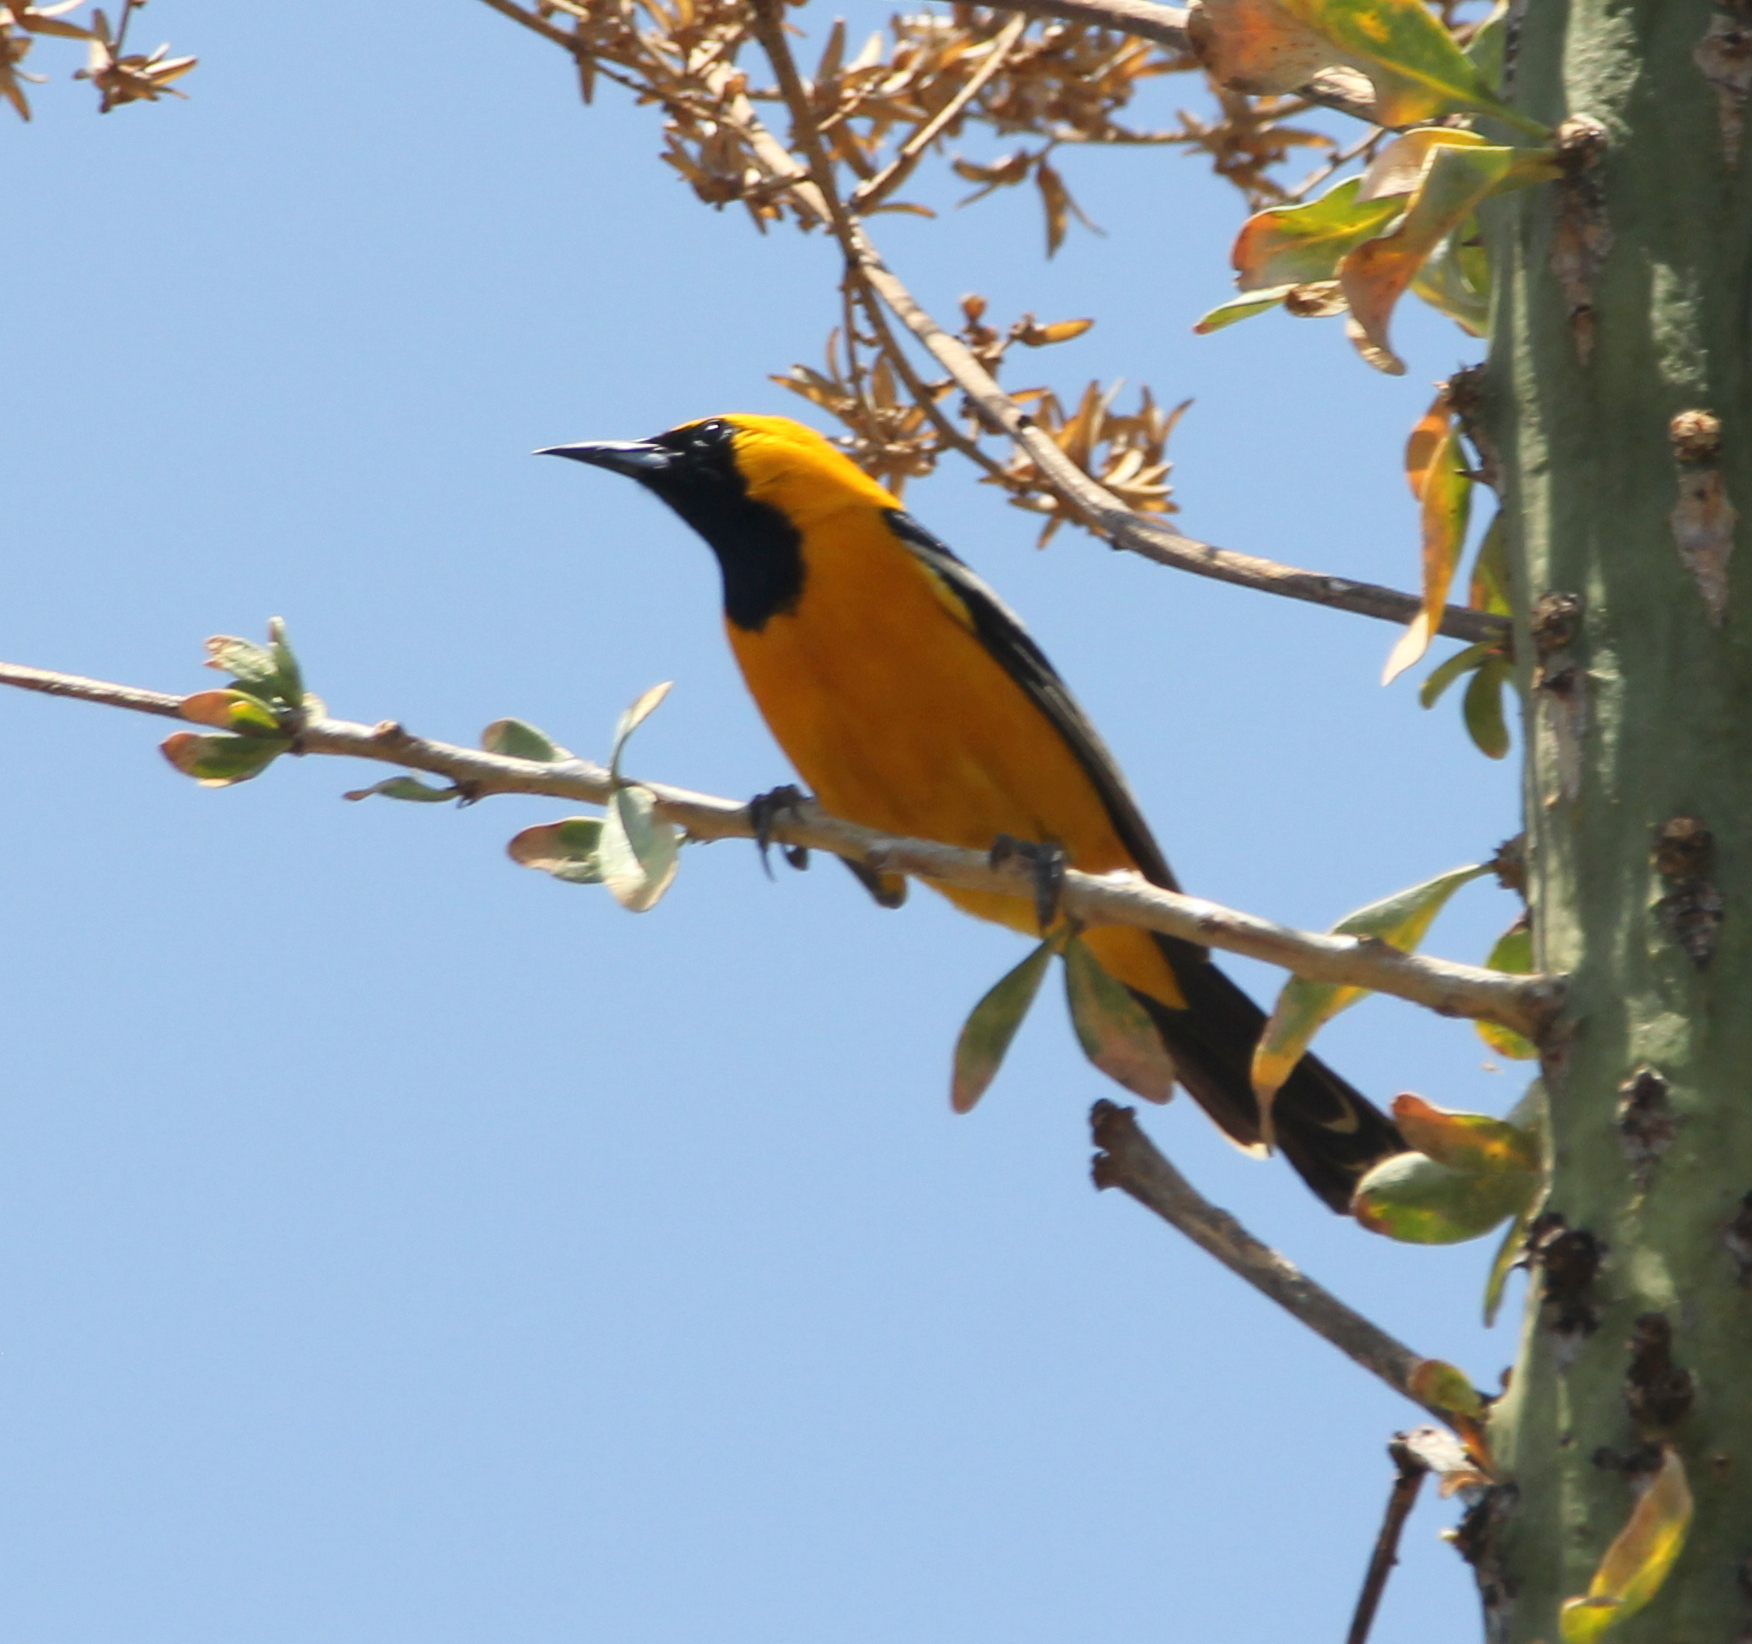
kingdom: Animalia
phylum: Chordata
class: Aves
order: Passeriformes
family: Icteridae
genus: Icterus
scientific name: Icterus cucullatus
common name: Hooded oriole
